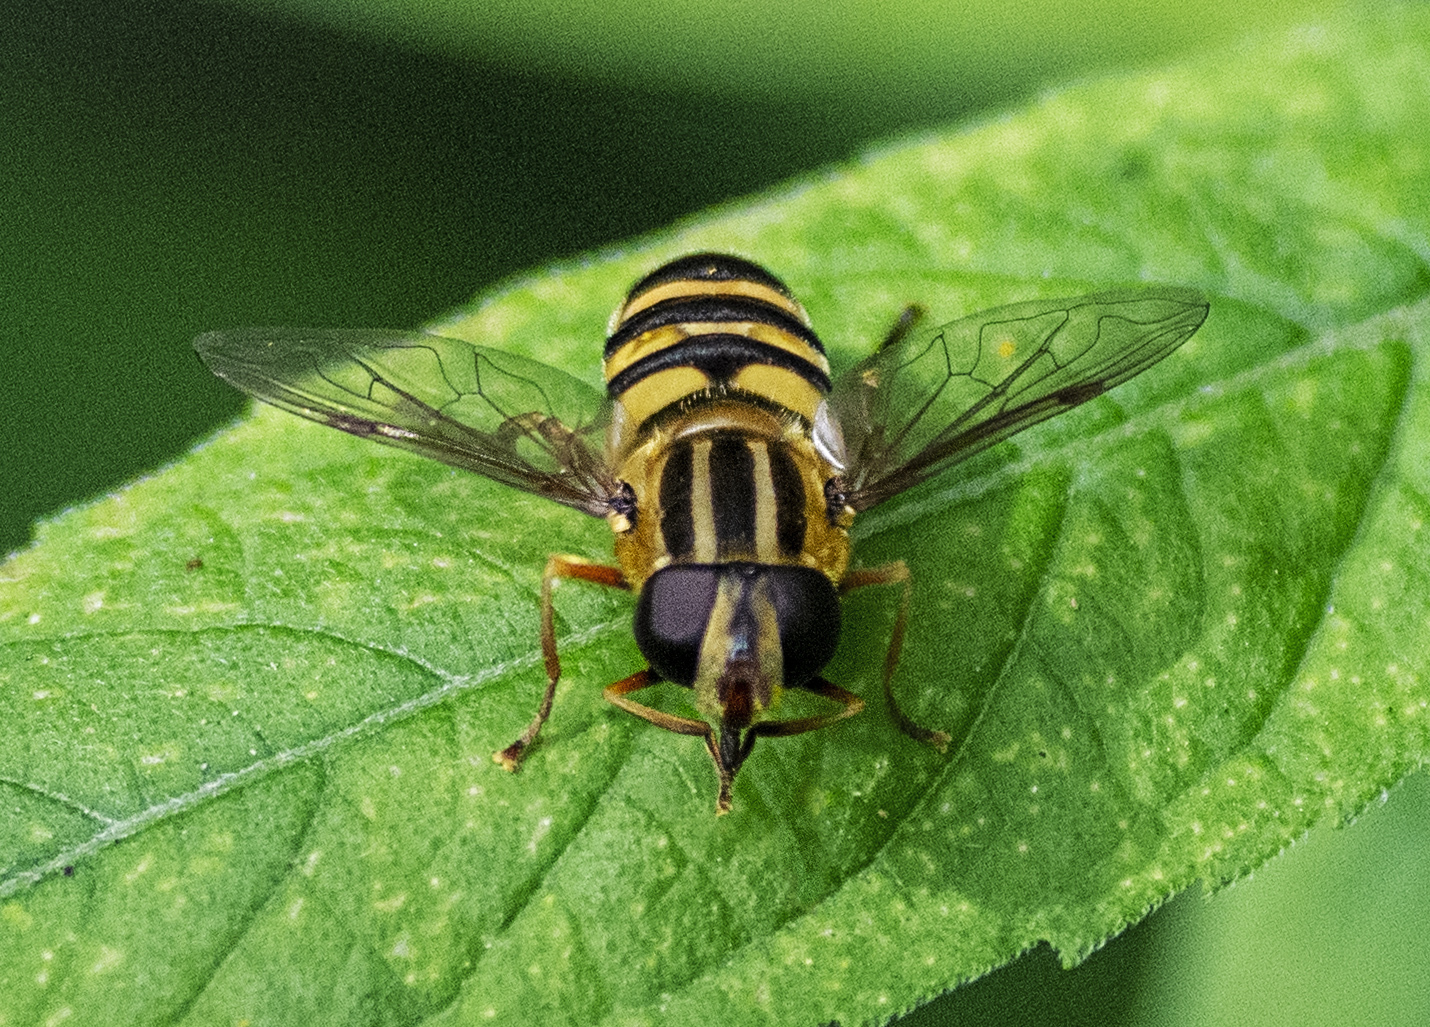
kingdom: Animalia
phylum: Arthropoda
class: Insecta
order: Diptera
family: Syrphidae
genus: Helophilus
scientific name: Helophilus fasciatus
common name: Narrow-headed marsh fly
